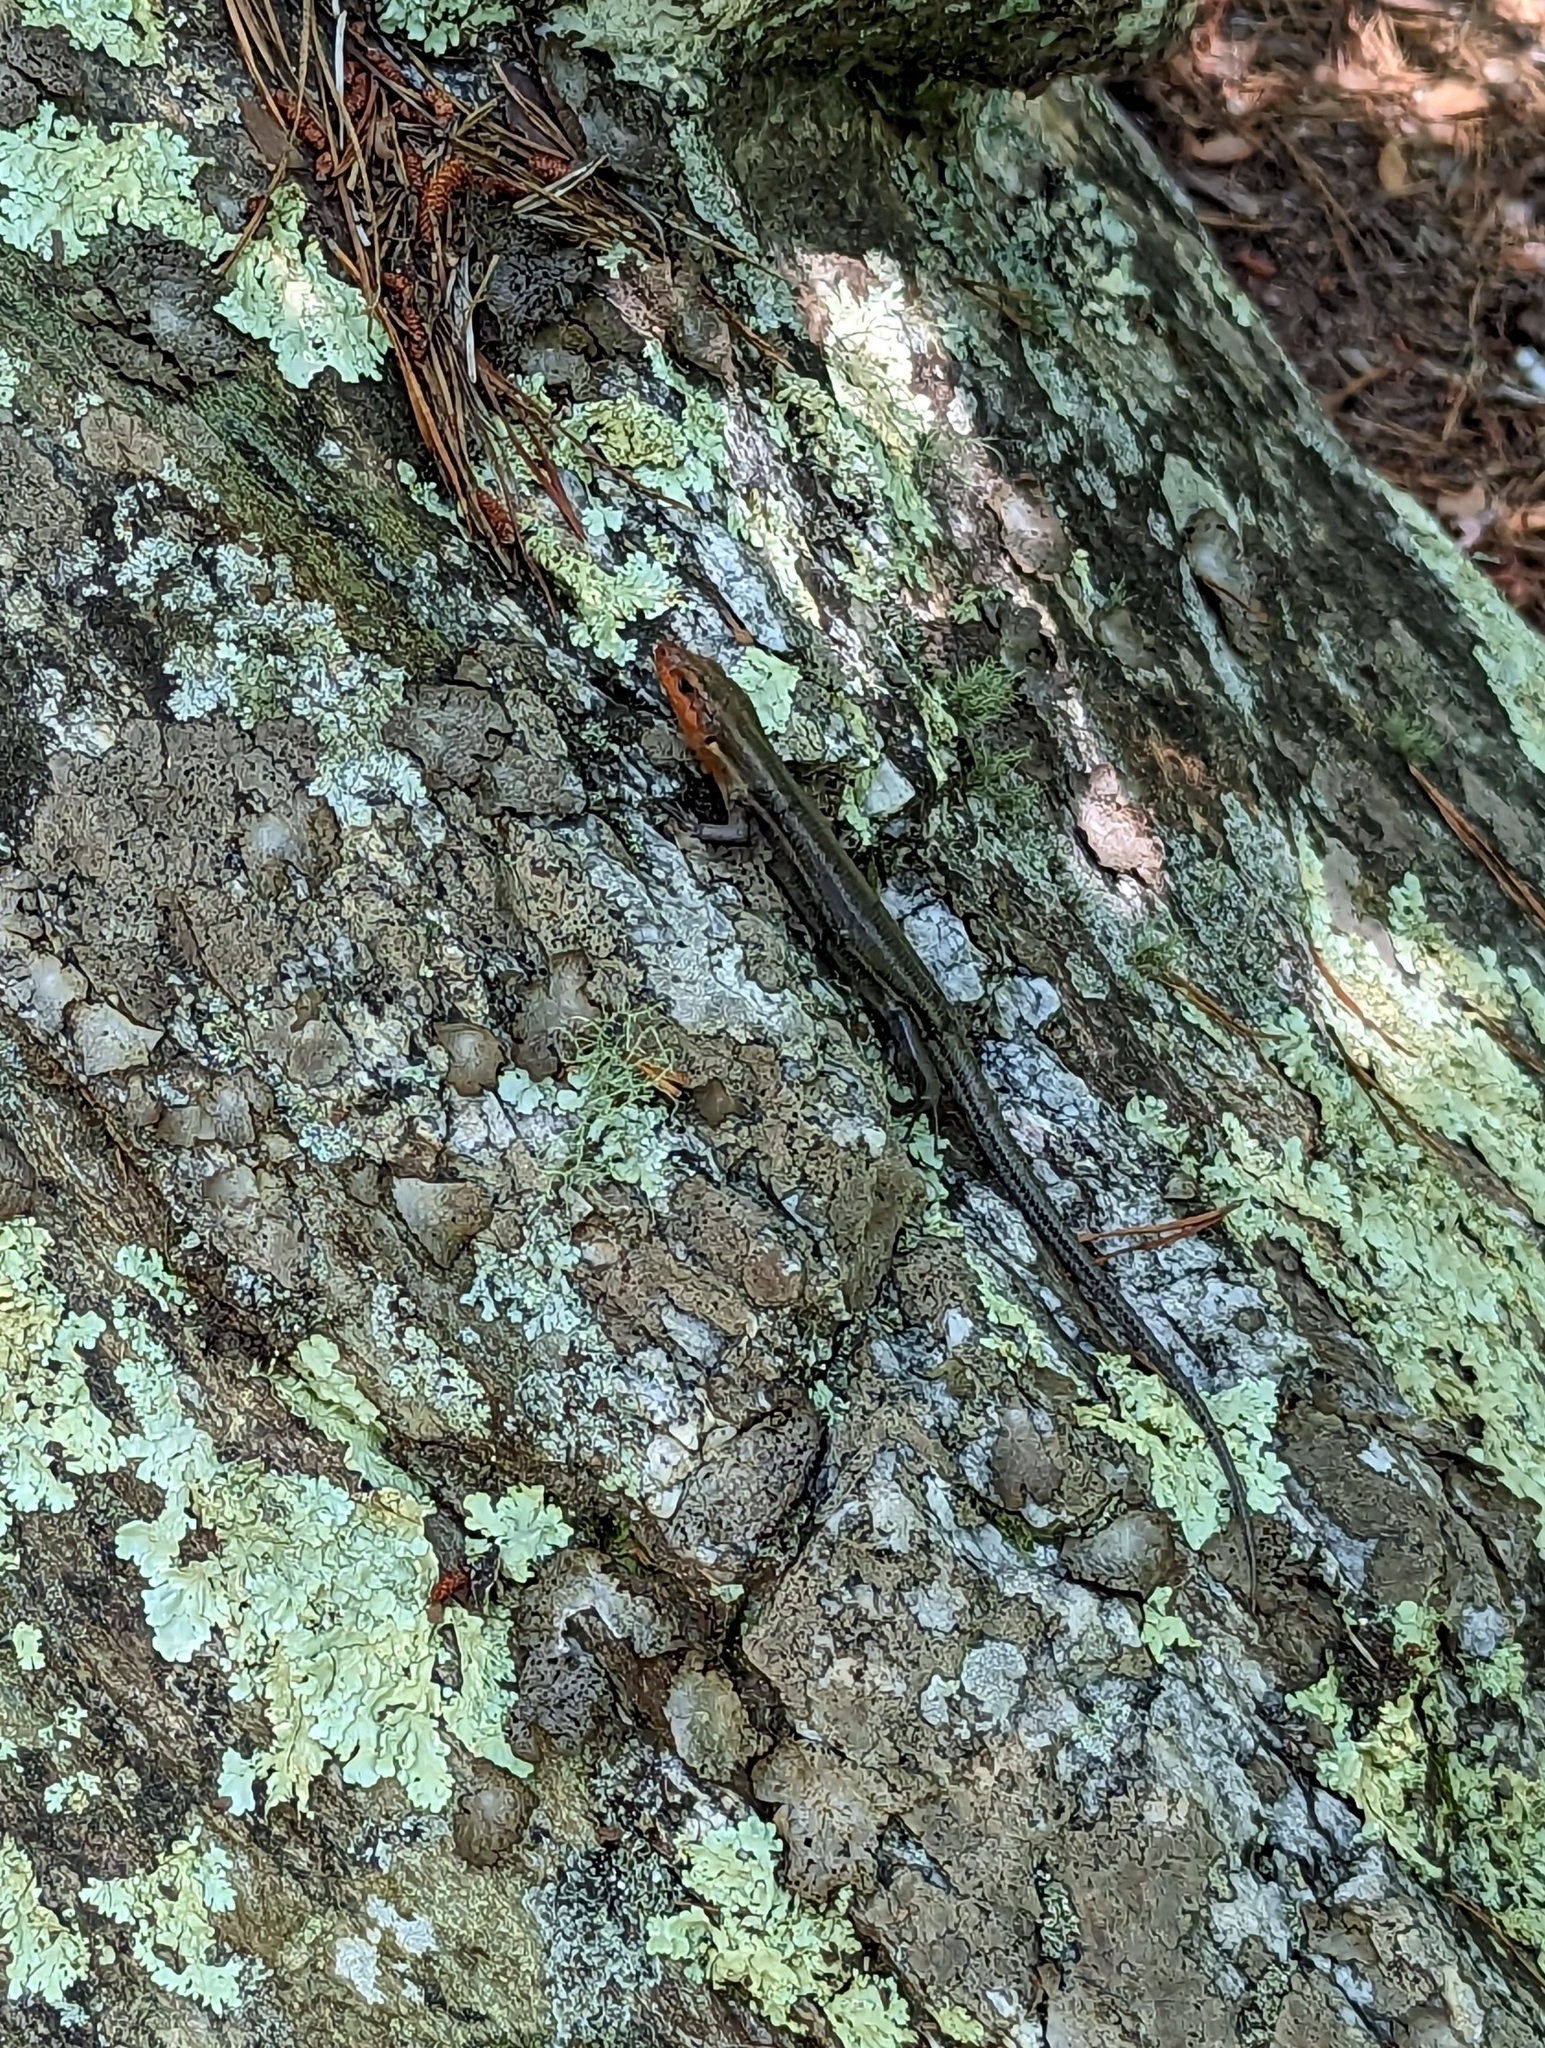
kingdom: Animalia
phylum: Chordata
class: Squamata
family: Scincidae
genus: Plestiodon
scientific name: Plestiodon fasciatus
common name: Five-lined skink
